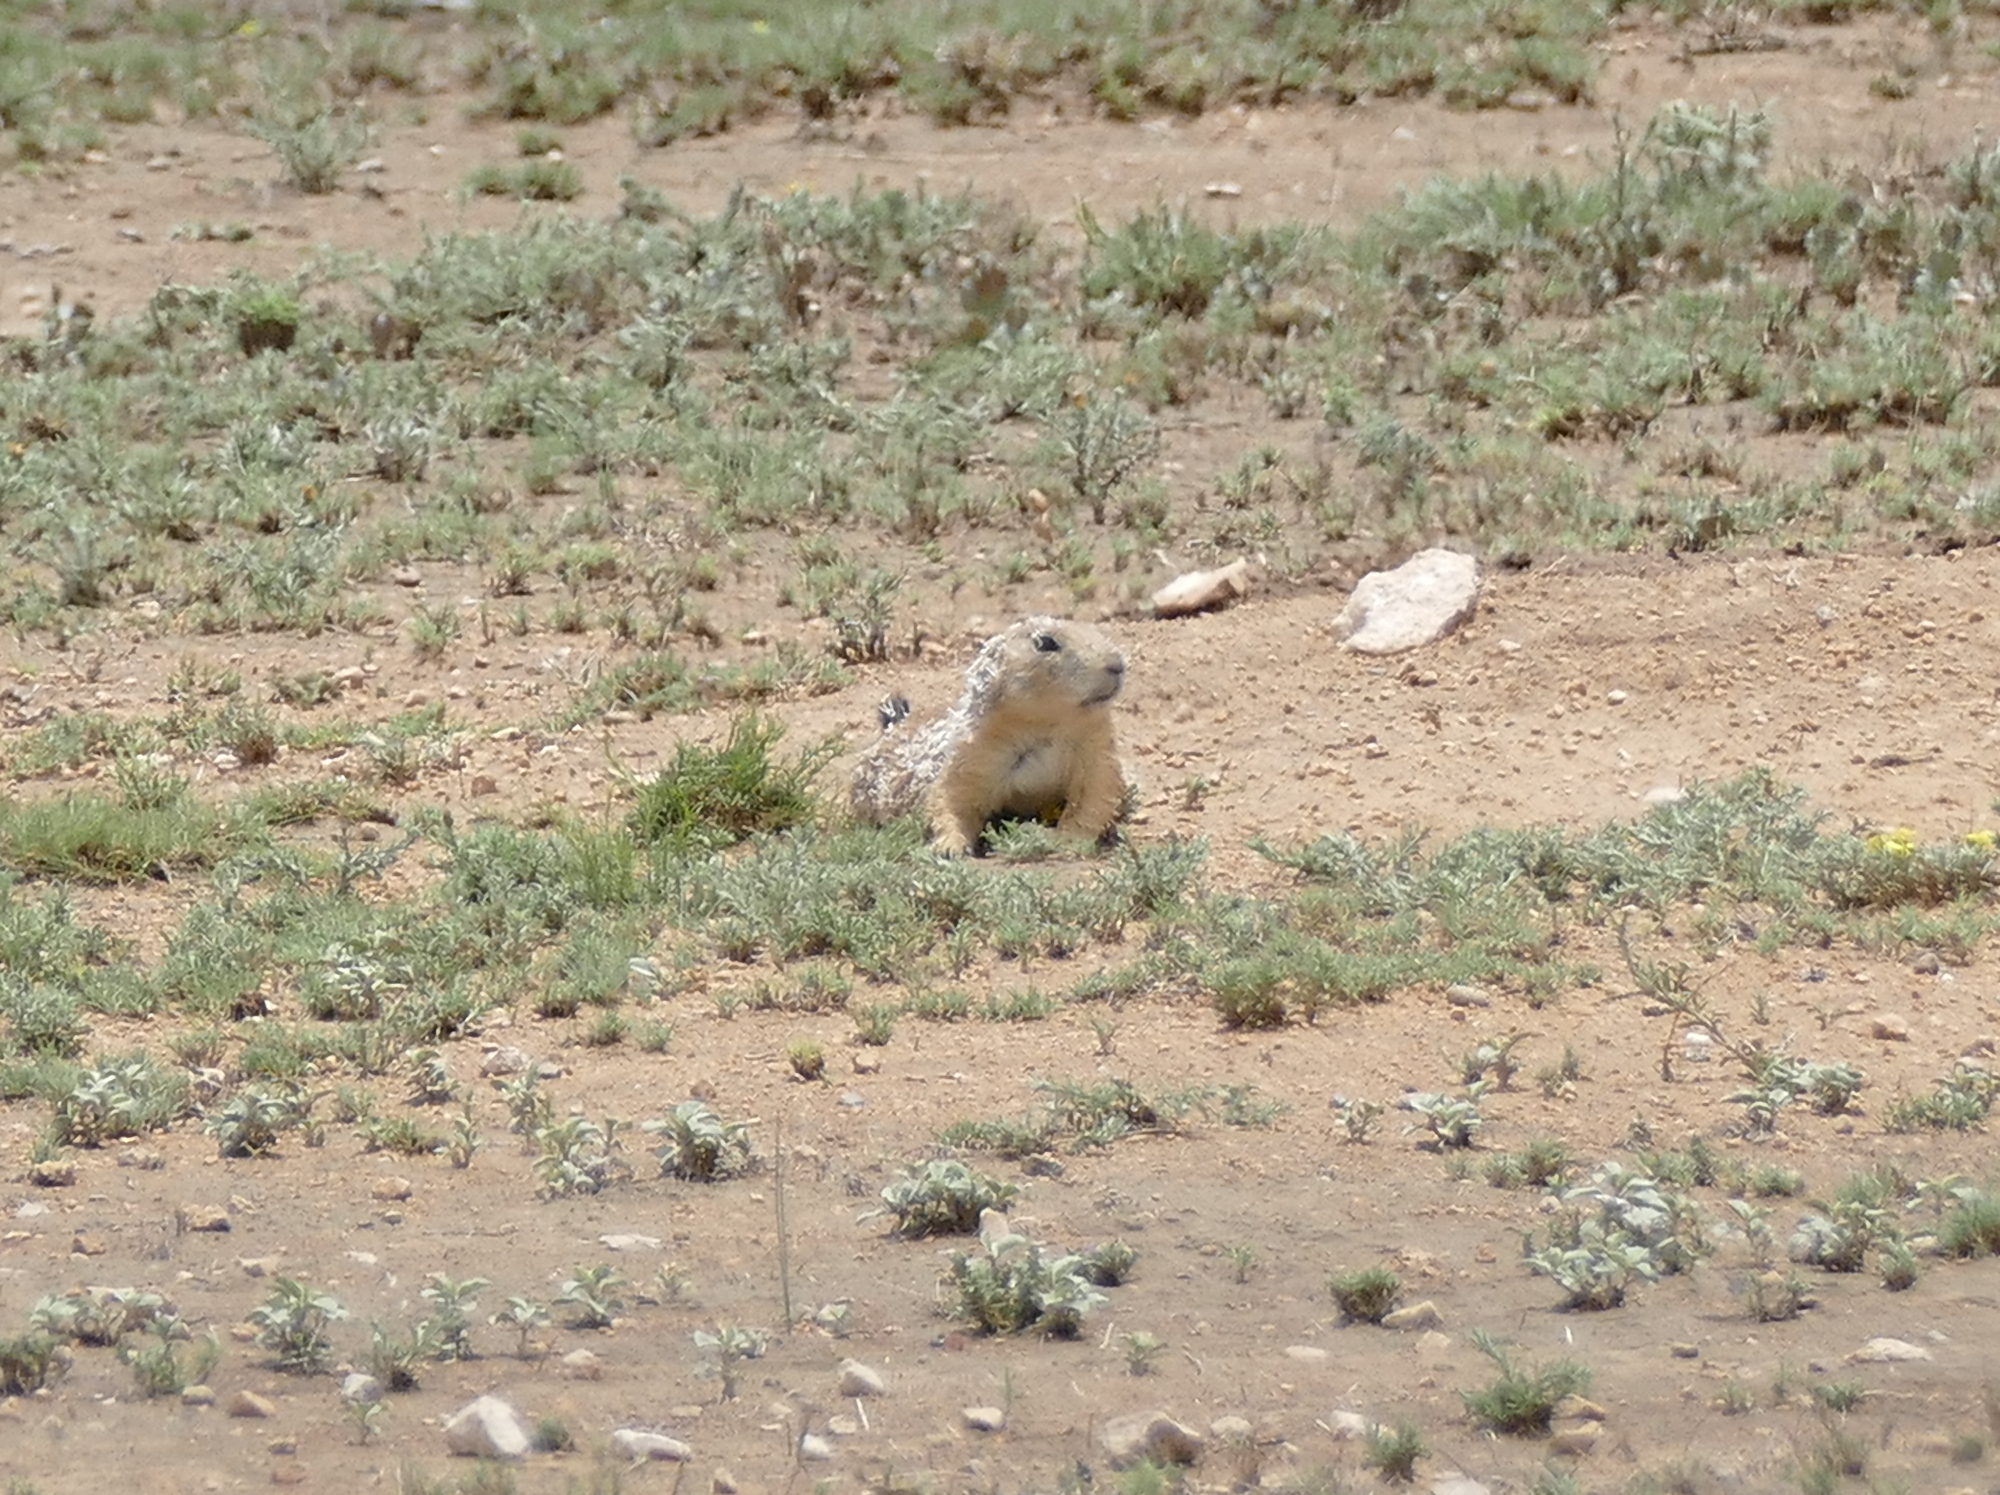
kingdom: Animalia
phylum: Chordata
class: Mammalia
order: Rodentia
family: Sciuridae
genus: Cynomys
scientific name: Cynomys ludovicianus
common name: Black-tailed prairie dog
